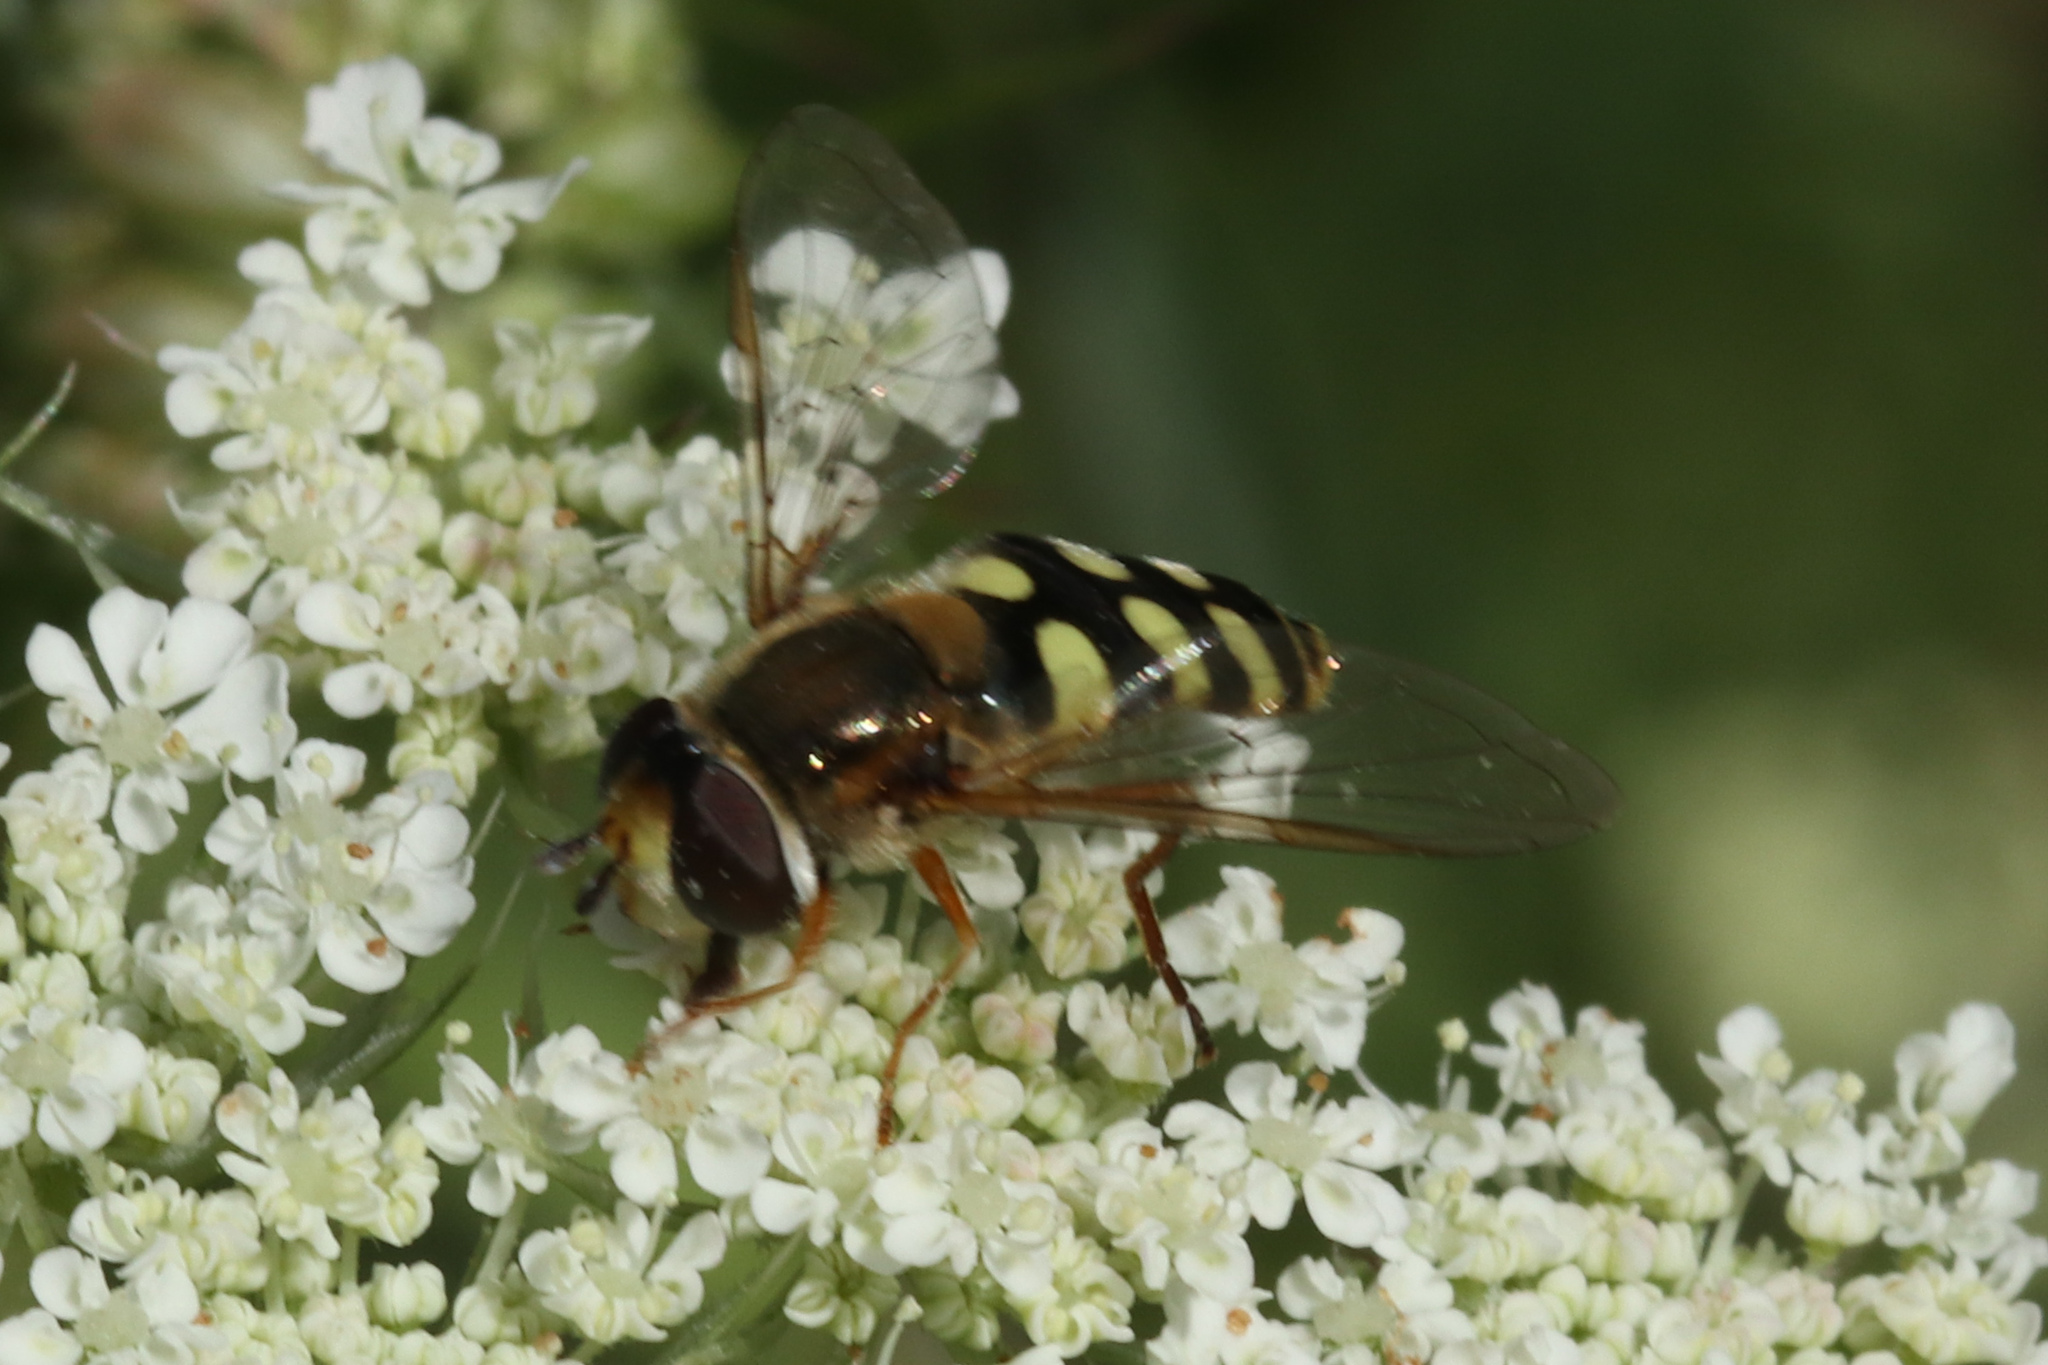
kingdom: Animalia
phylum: Arthropoda
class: Insecta
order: Diptera
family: Syrphidae
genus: Eupeodes
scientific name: Eupeodes corollae
